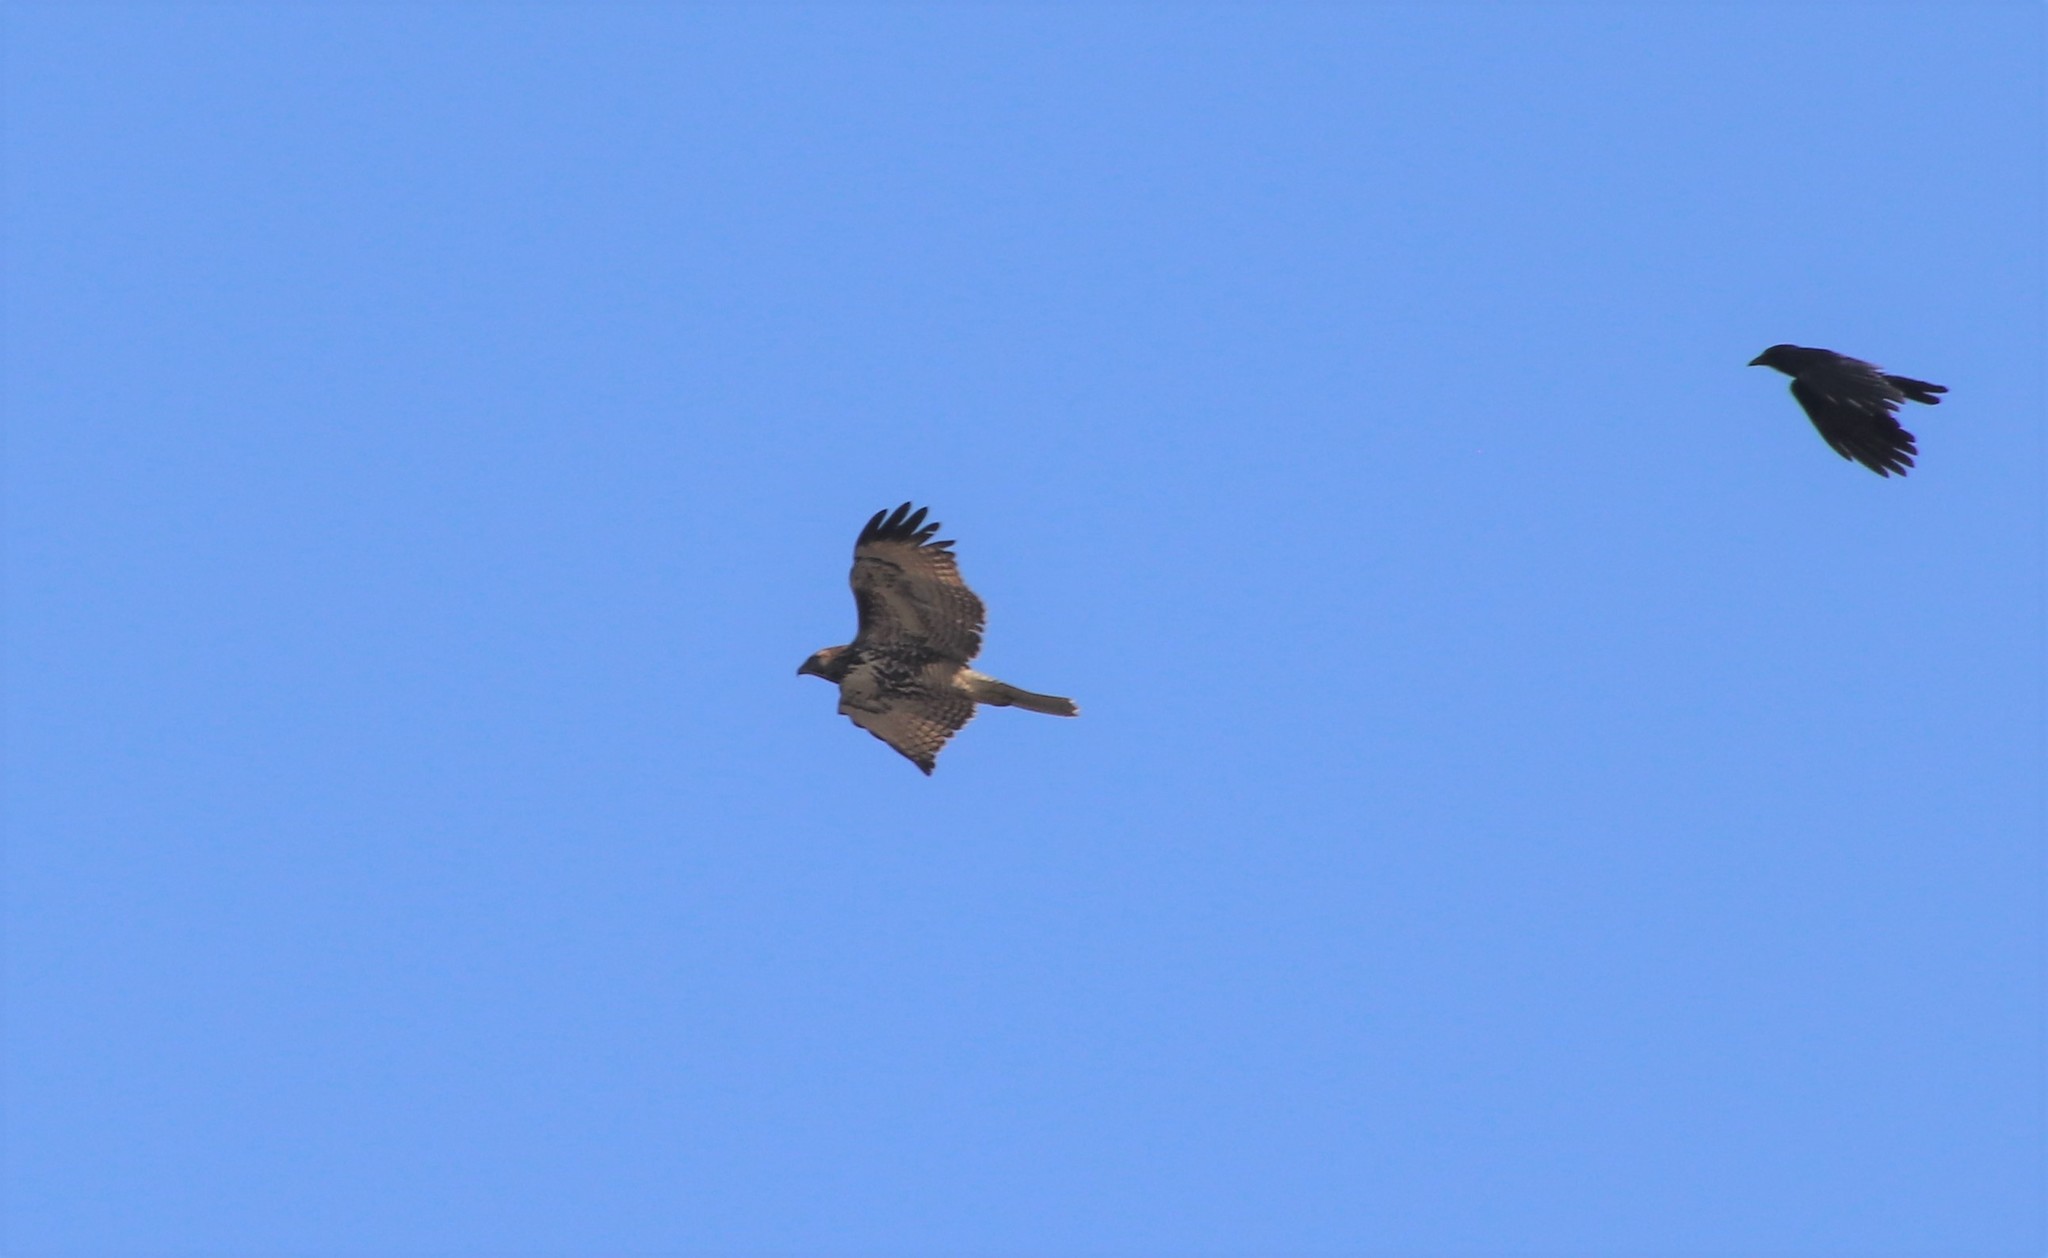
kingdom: Animalia
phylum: Chordata
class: Aves
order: Accipitriformes
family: Accipitridae
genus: Buteo
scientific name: Buteo jamaicensis
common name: Red-tailed hawk
